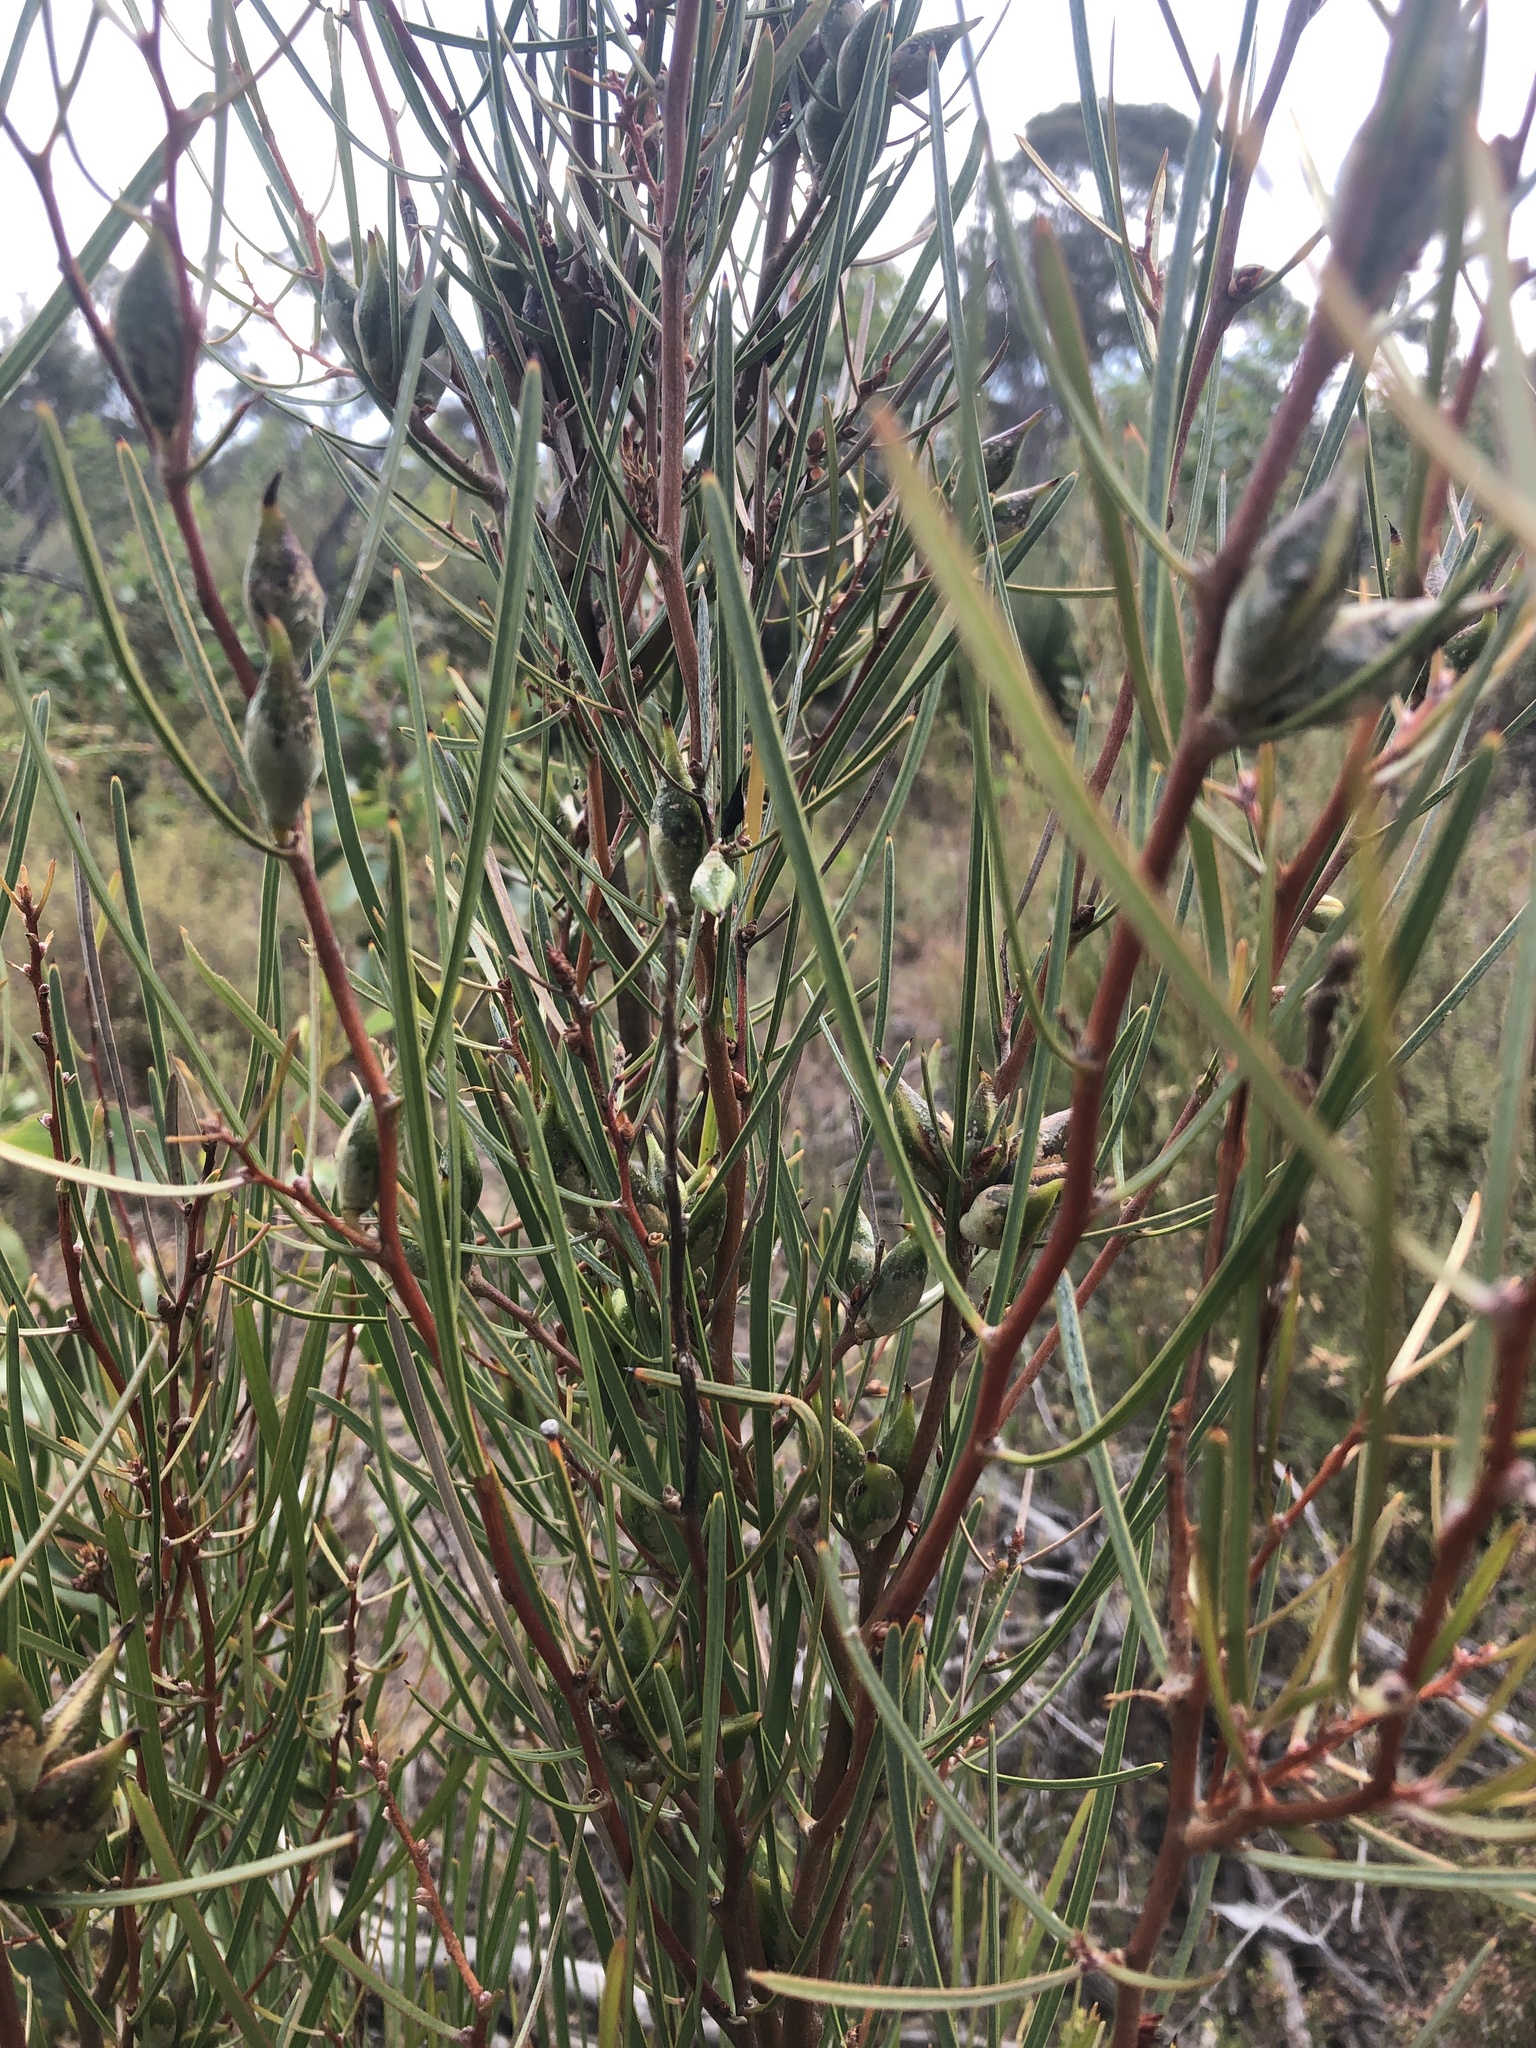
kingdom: Plantae
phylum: Tracheophyta
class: Magnoliopsida
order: Proteales
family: Proteaceae
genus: Hakea
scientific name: Hakea carinata
